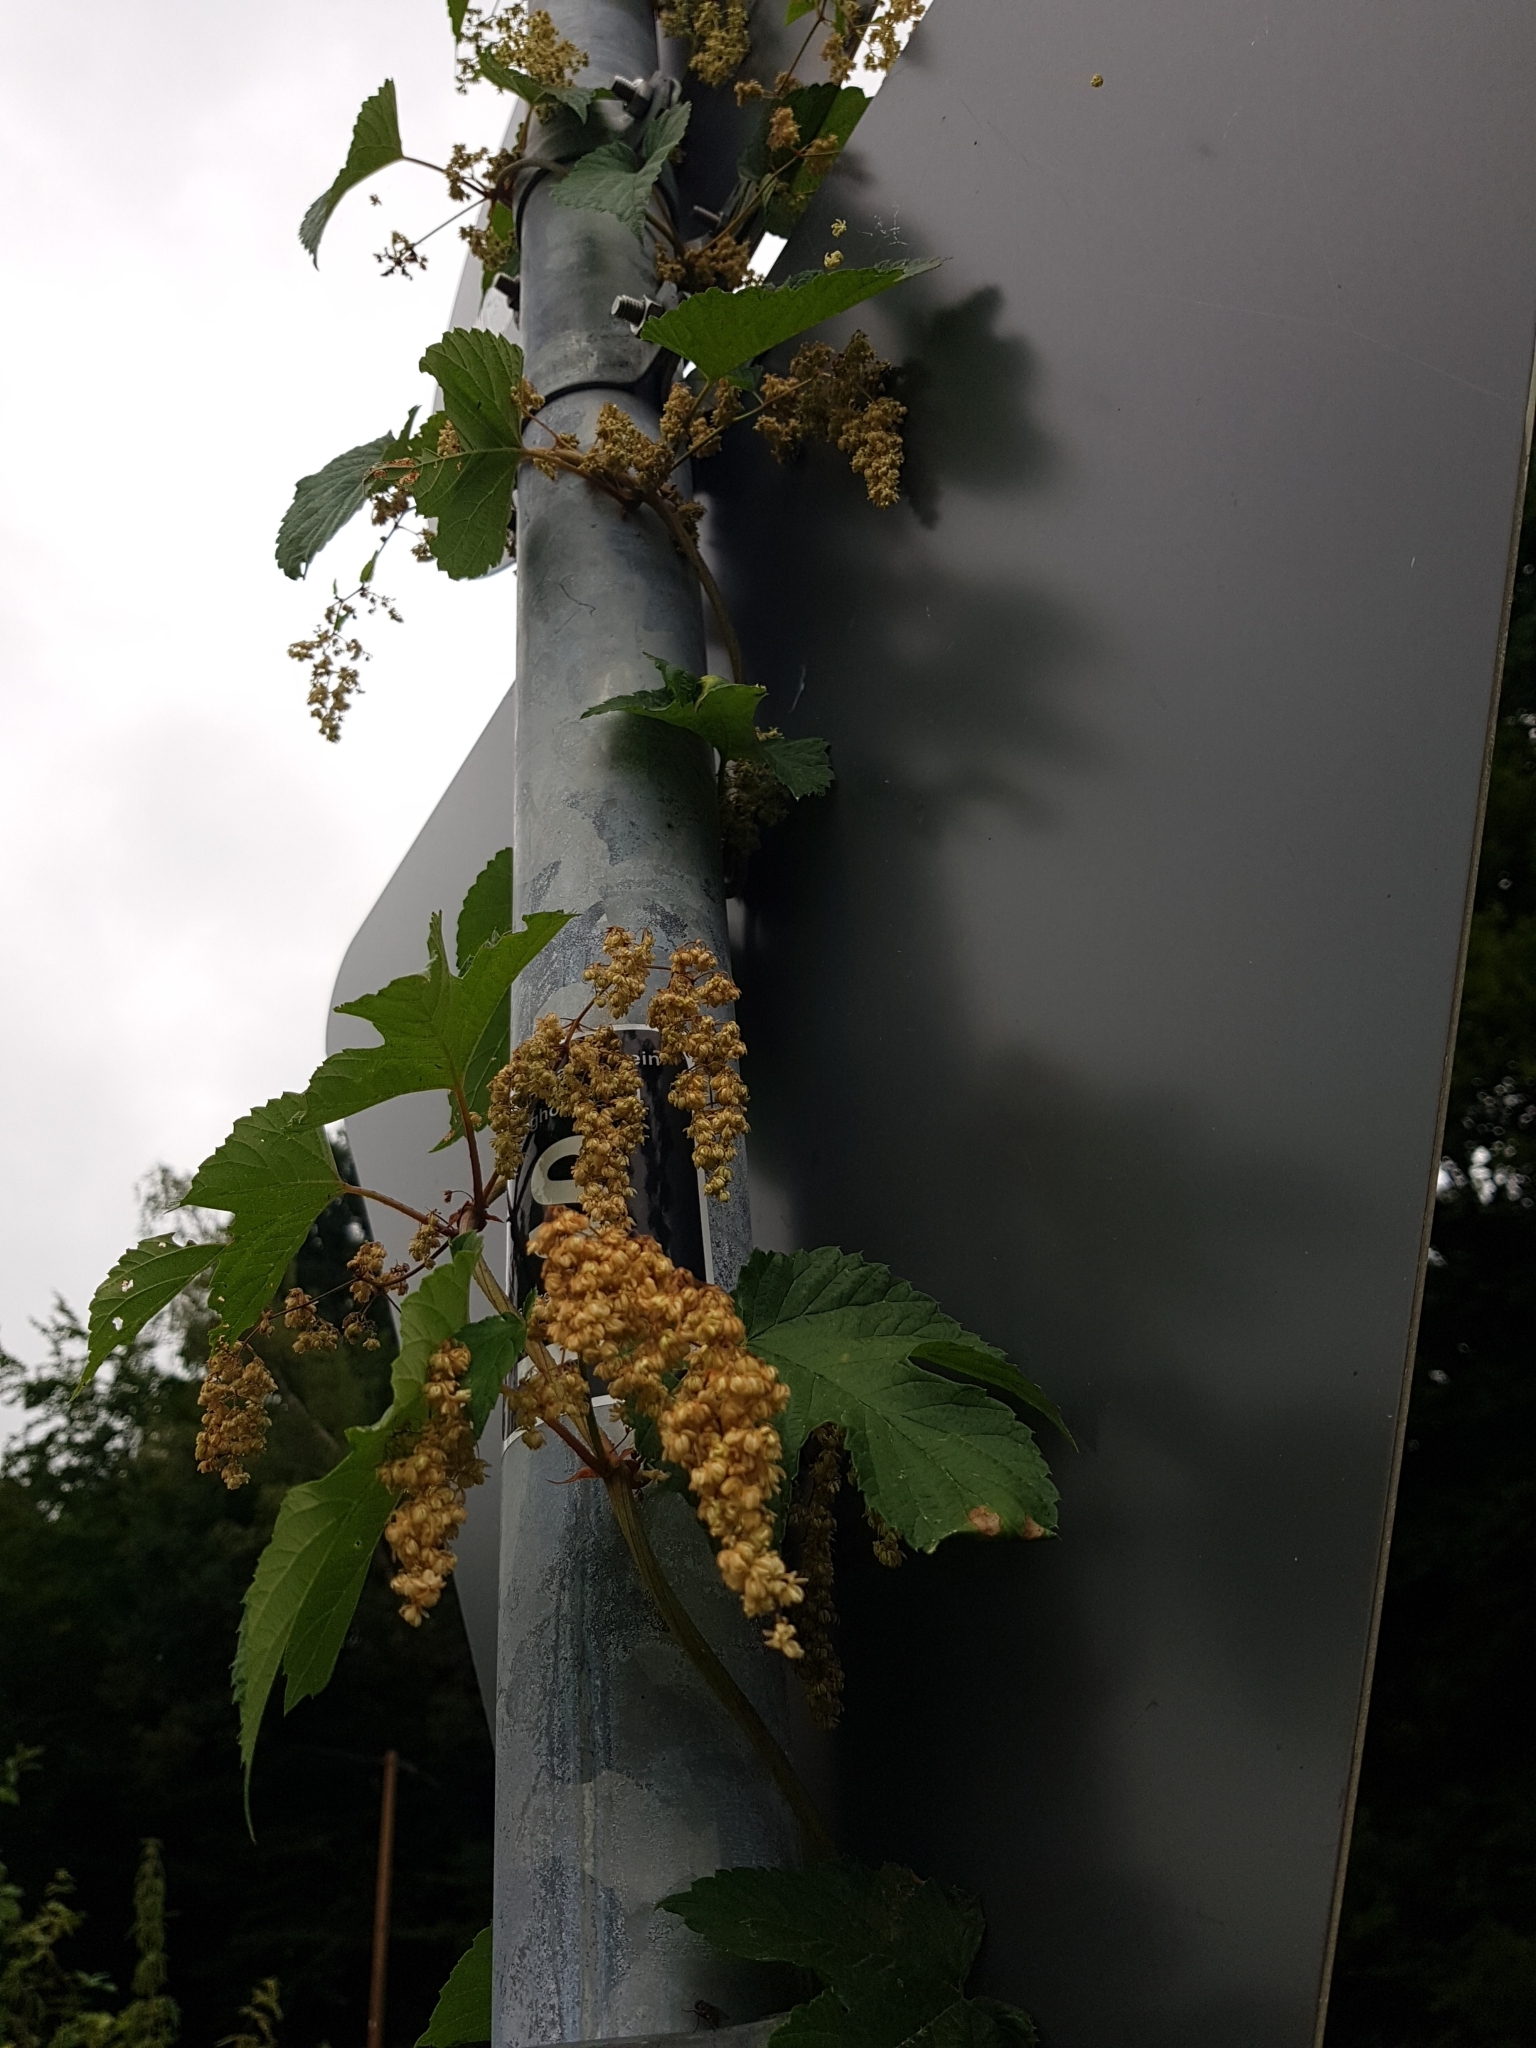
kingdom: Plantae
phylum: Tracheophyta
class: Magnoliopsida
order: Rosales
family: Cannabaceae
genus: Humulus
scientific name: Humulus lupulus
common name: Hop
